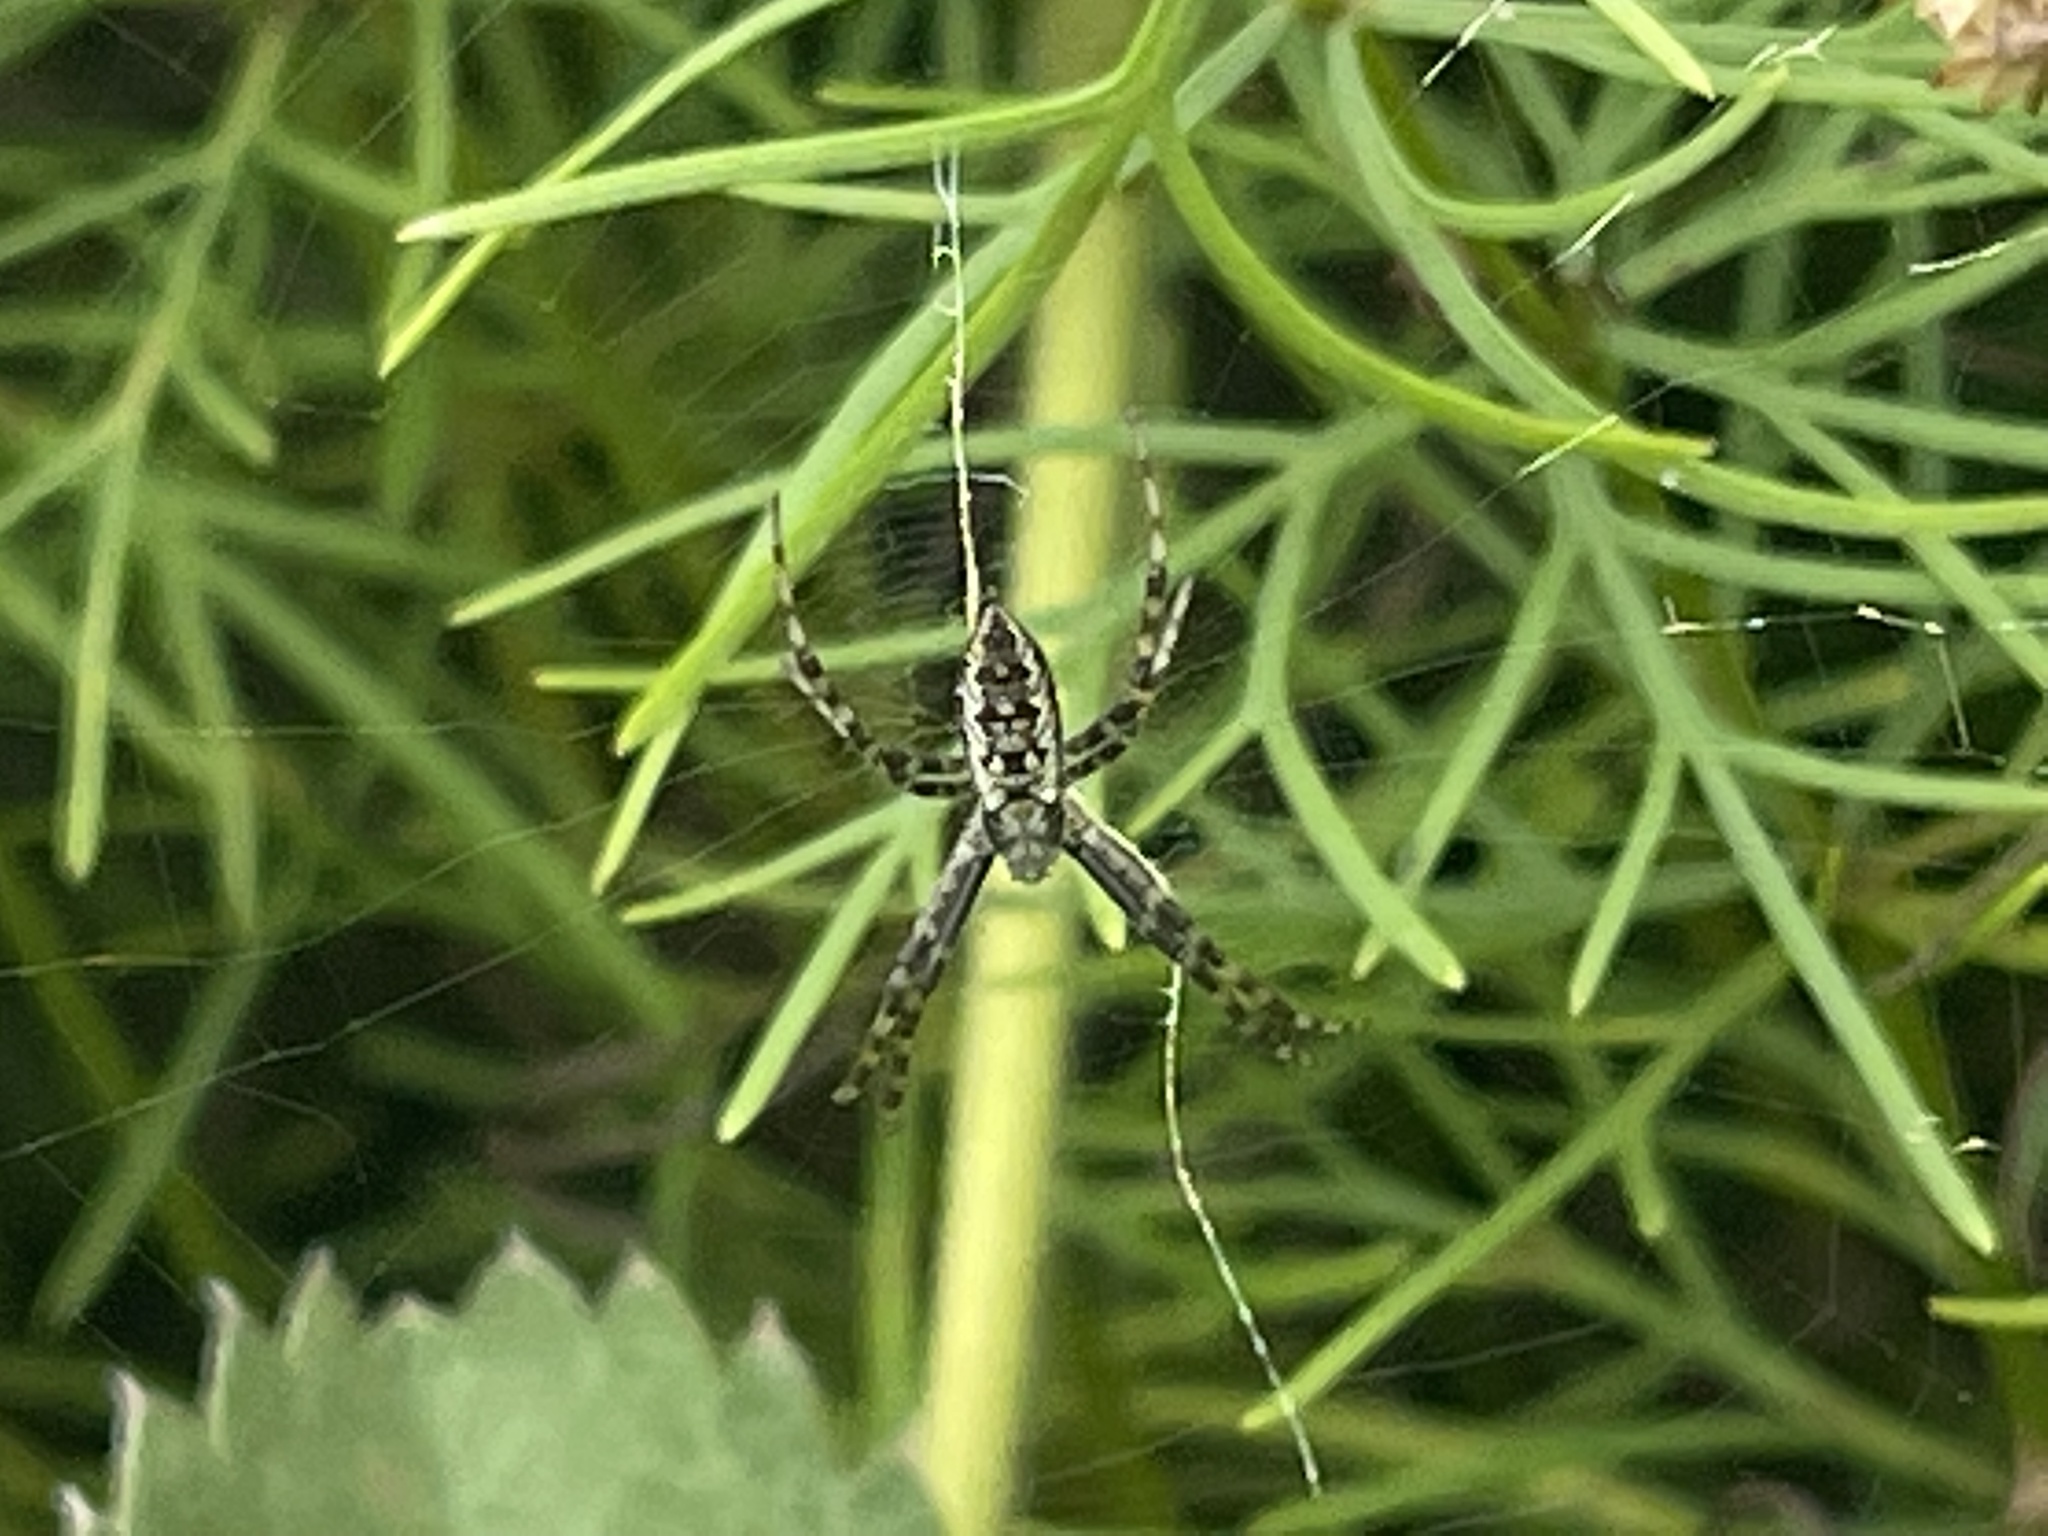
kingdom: Animalia
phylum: Arthropoda
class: Arachnida
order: Araneae
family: Araneidae
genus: Argiope
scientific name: Argiope aurantia
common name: Orb weavers
